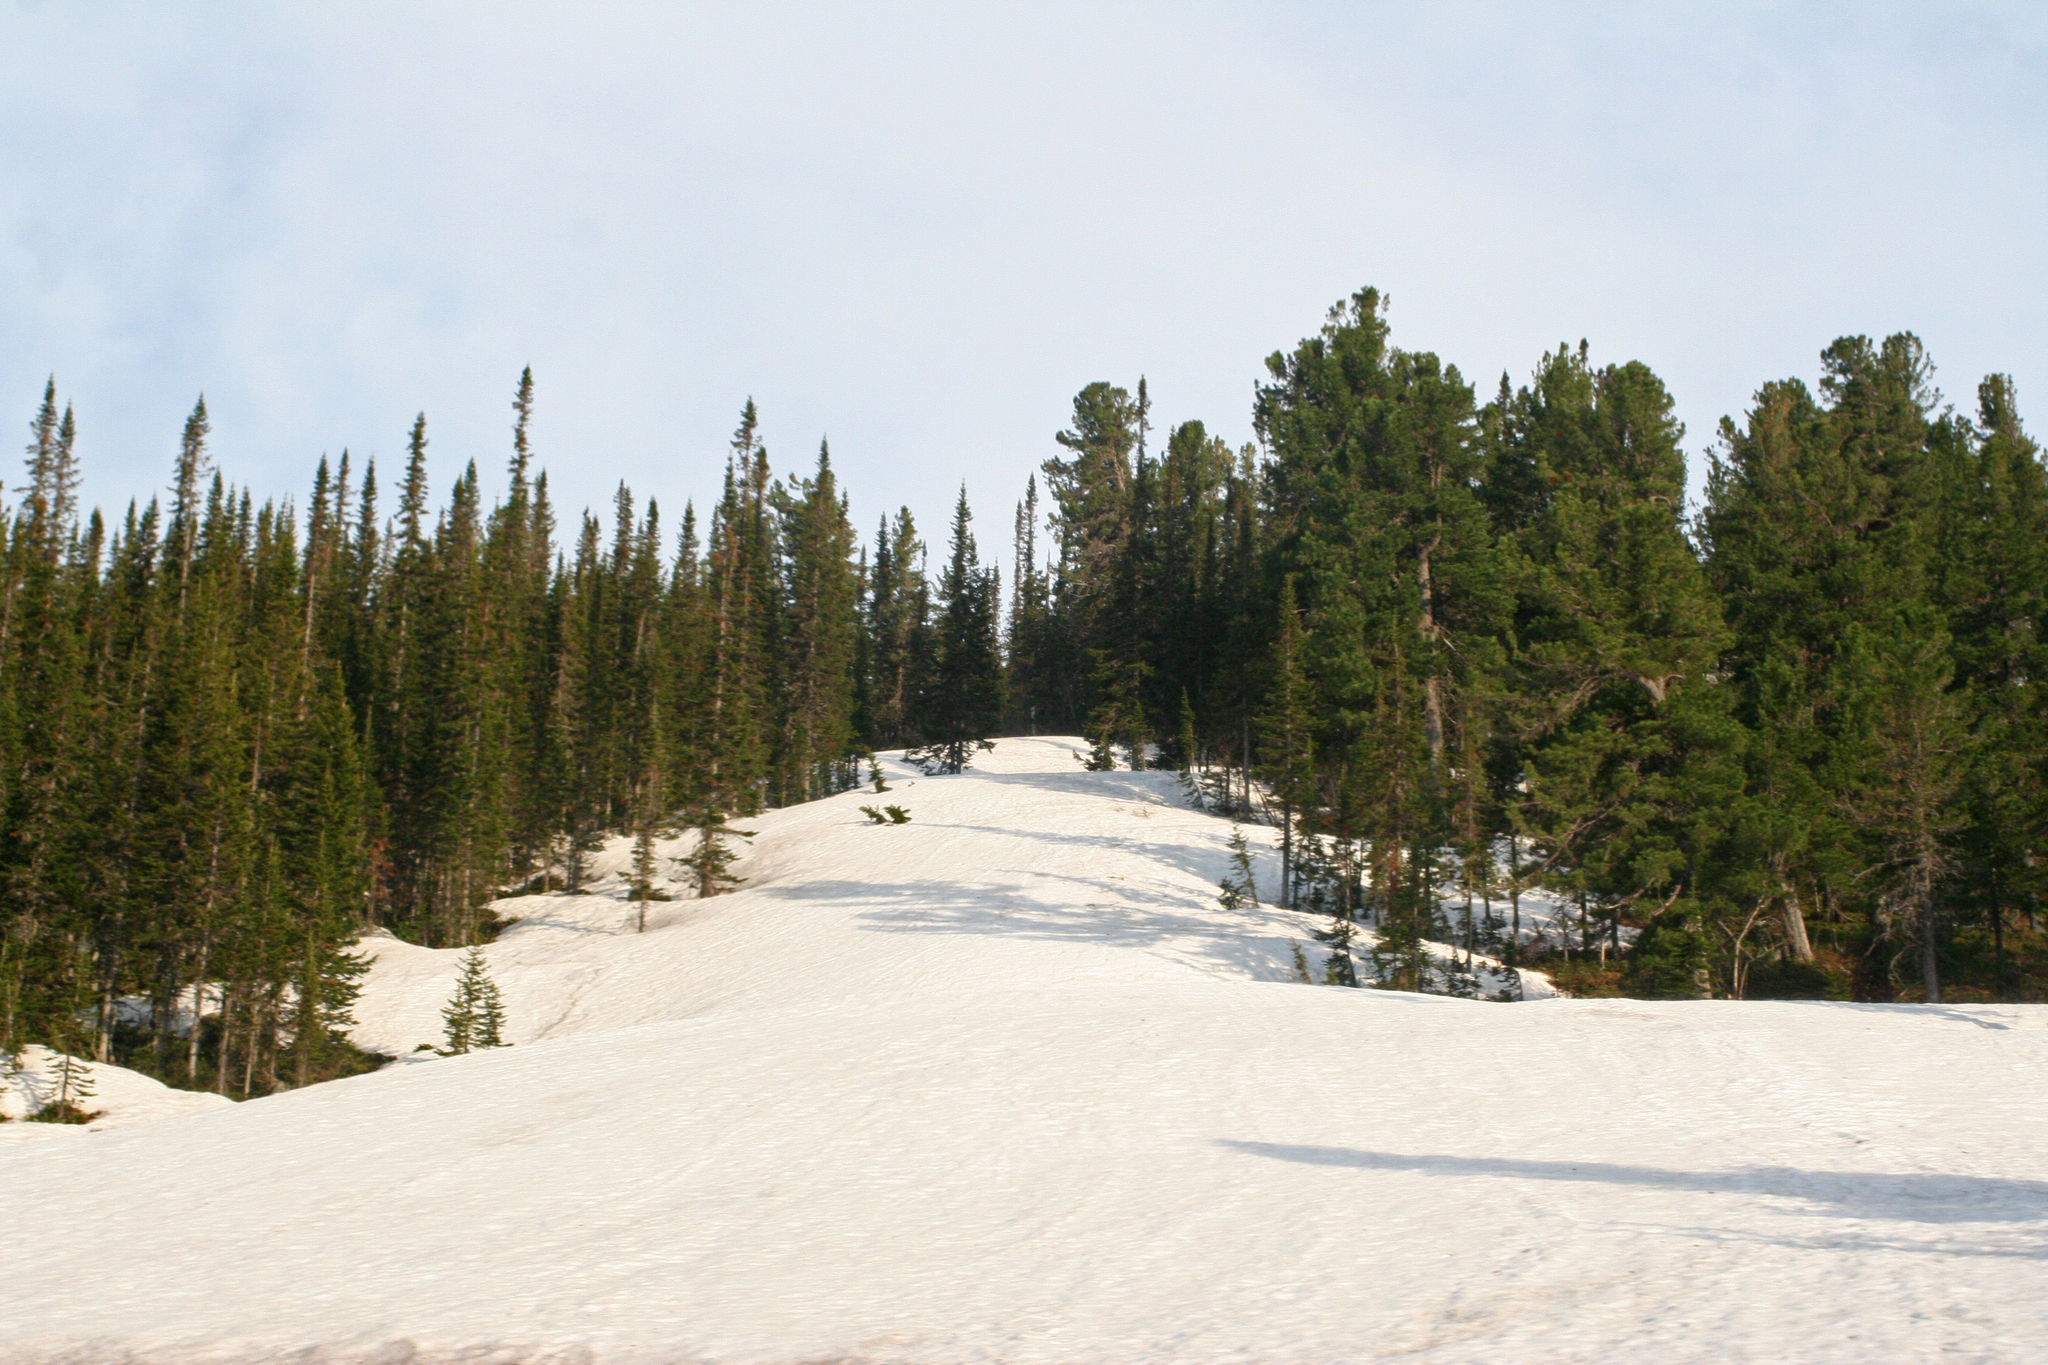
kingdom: Plantae
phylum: Tracheophyta
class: Pinopsida
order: Pinales
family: Pinaceae
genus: Abies
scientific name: Abies sibirica
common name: Siberian fir
